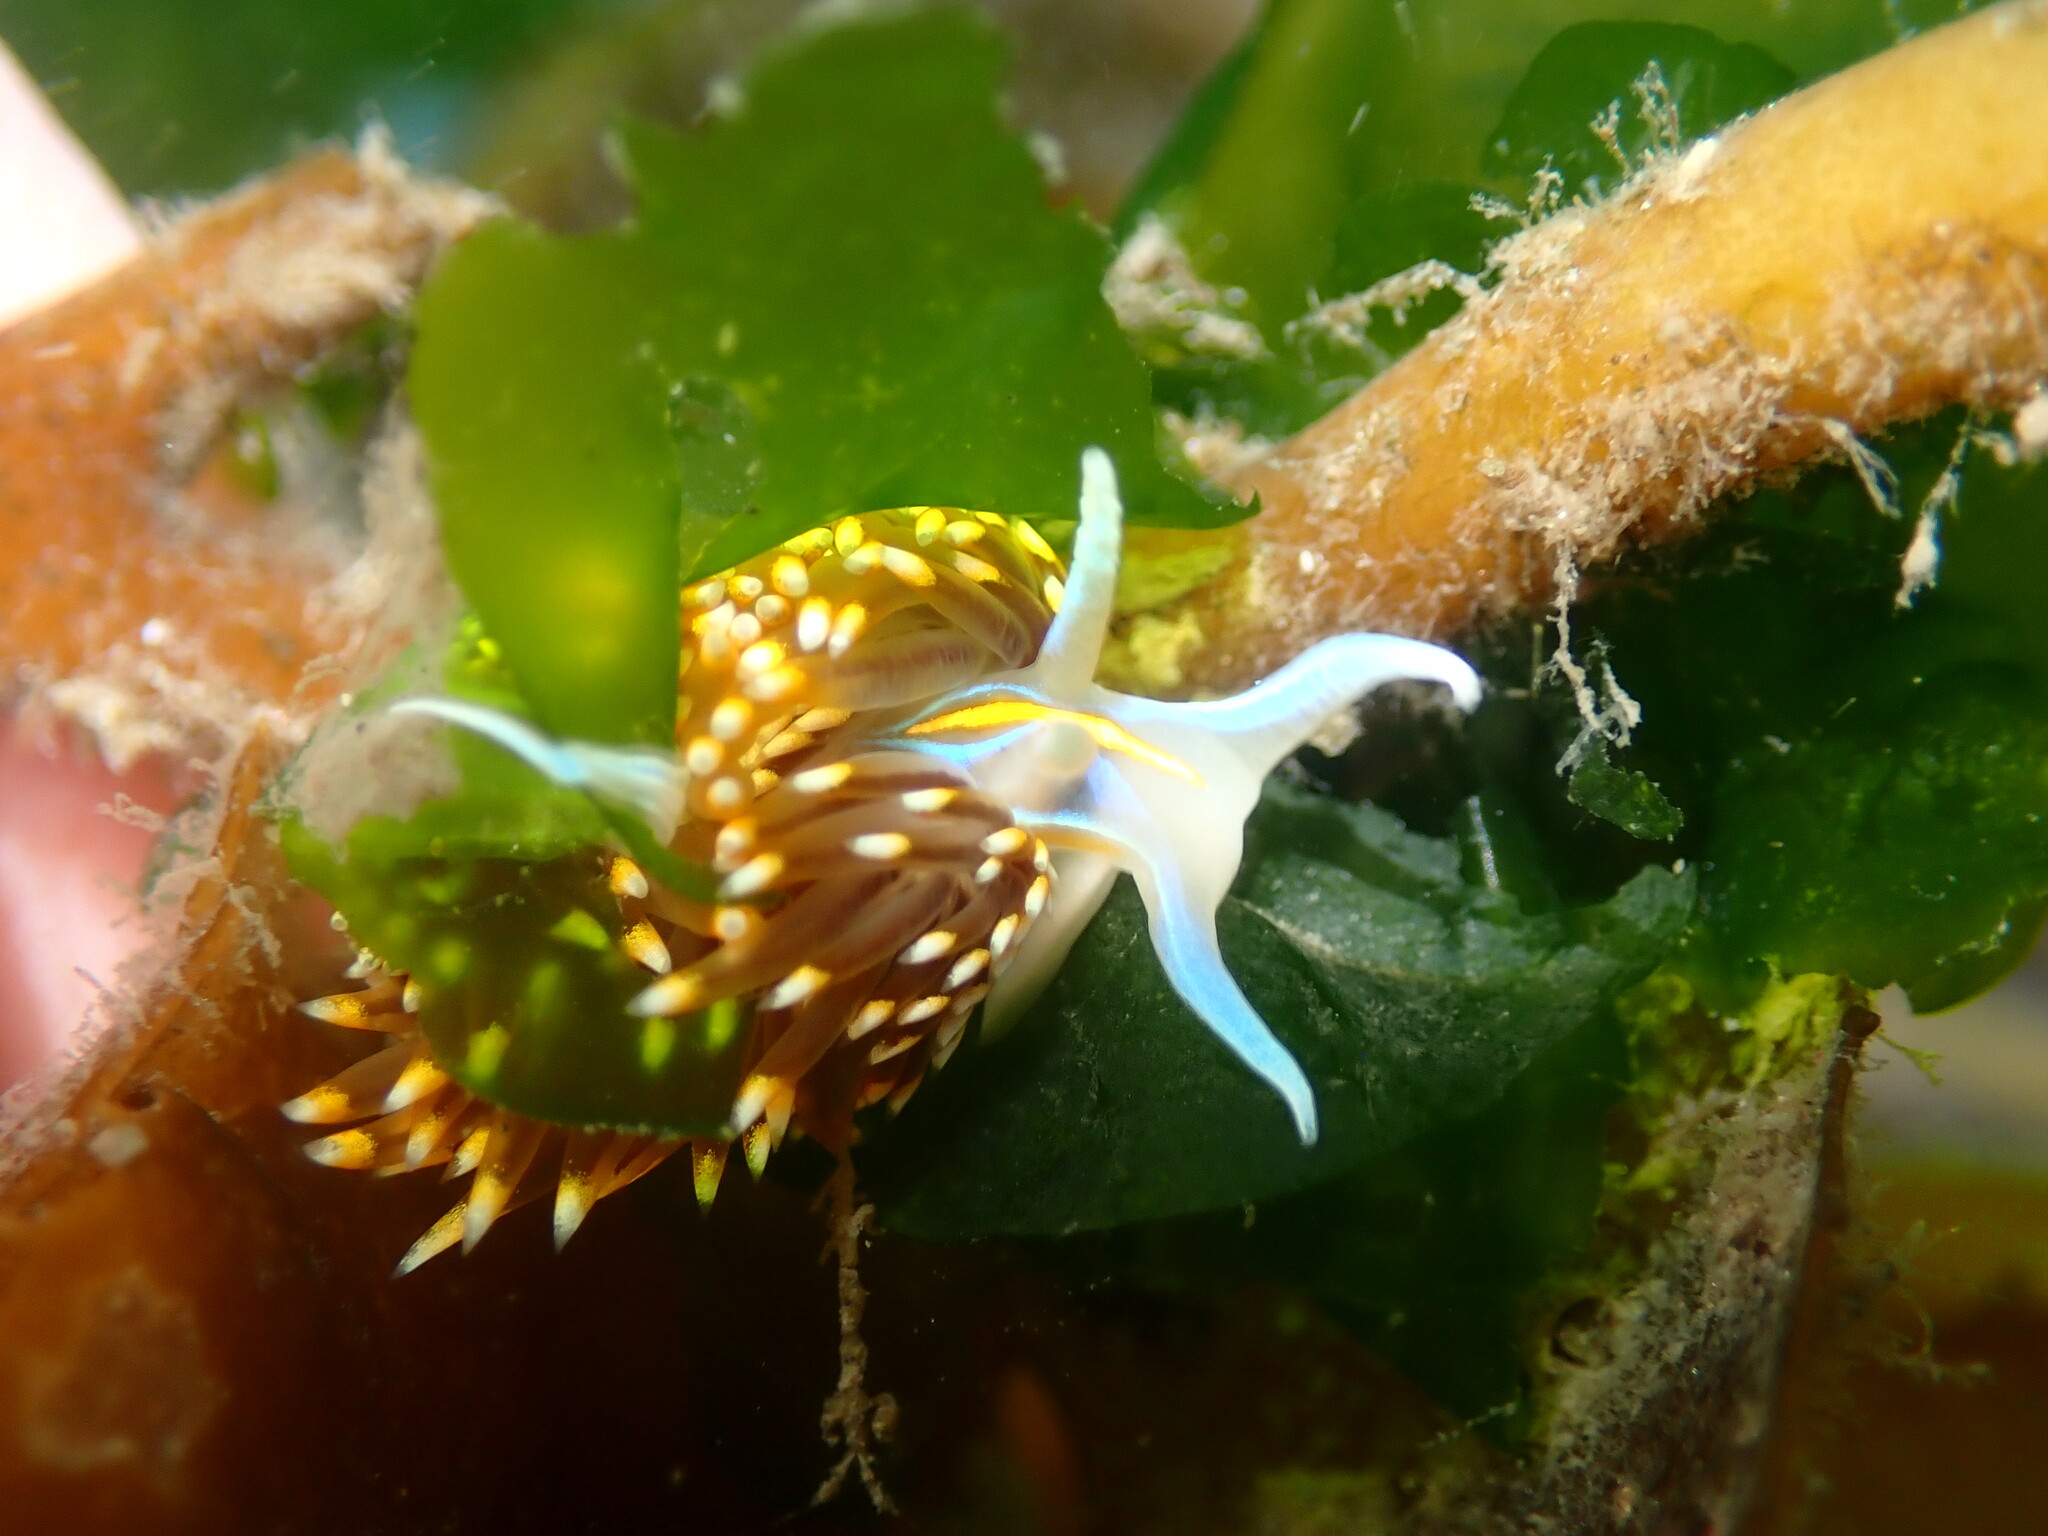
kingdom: Animalia
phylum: Mollusca
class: Gastropoda
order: Nudibranchia
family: Myrrhinidae
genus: Hermissenda
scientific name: Hermissenda opalescens
